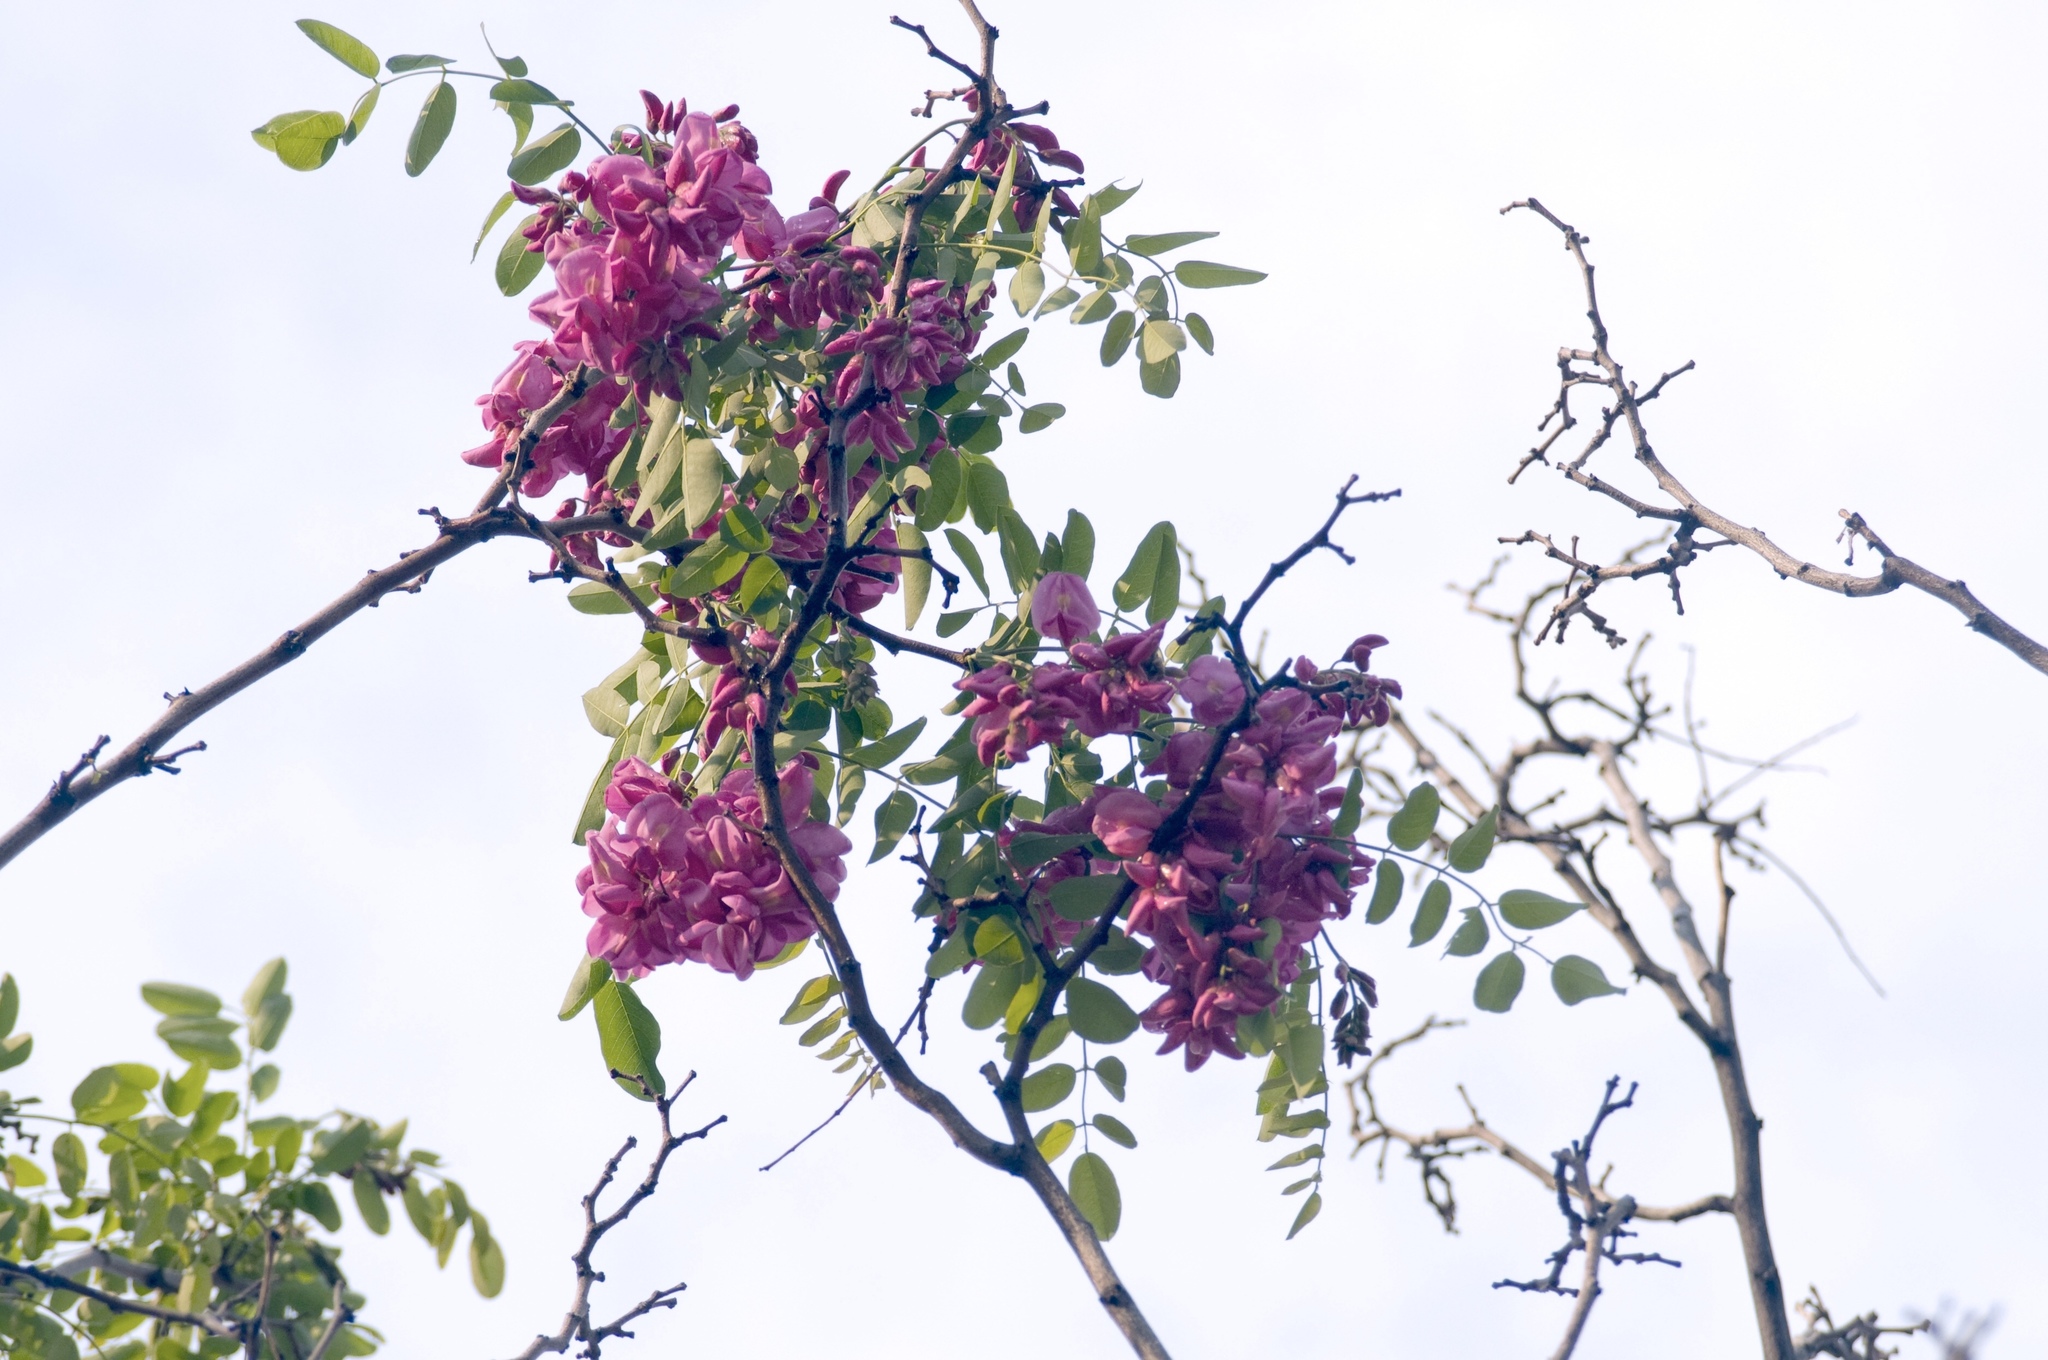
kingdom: Plantae
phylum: Tracheophyta
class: Magnoliopsida
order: Fabales
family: Fabaceae
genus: Robinia
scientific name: Robinia neomexicana
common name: New mexico locust
